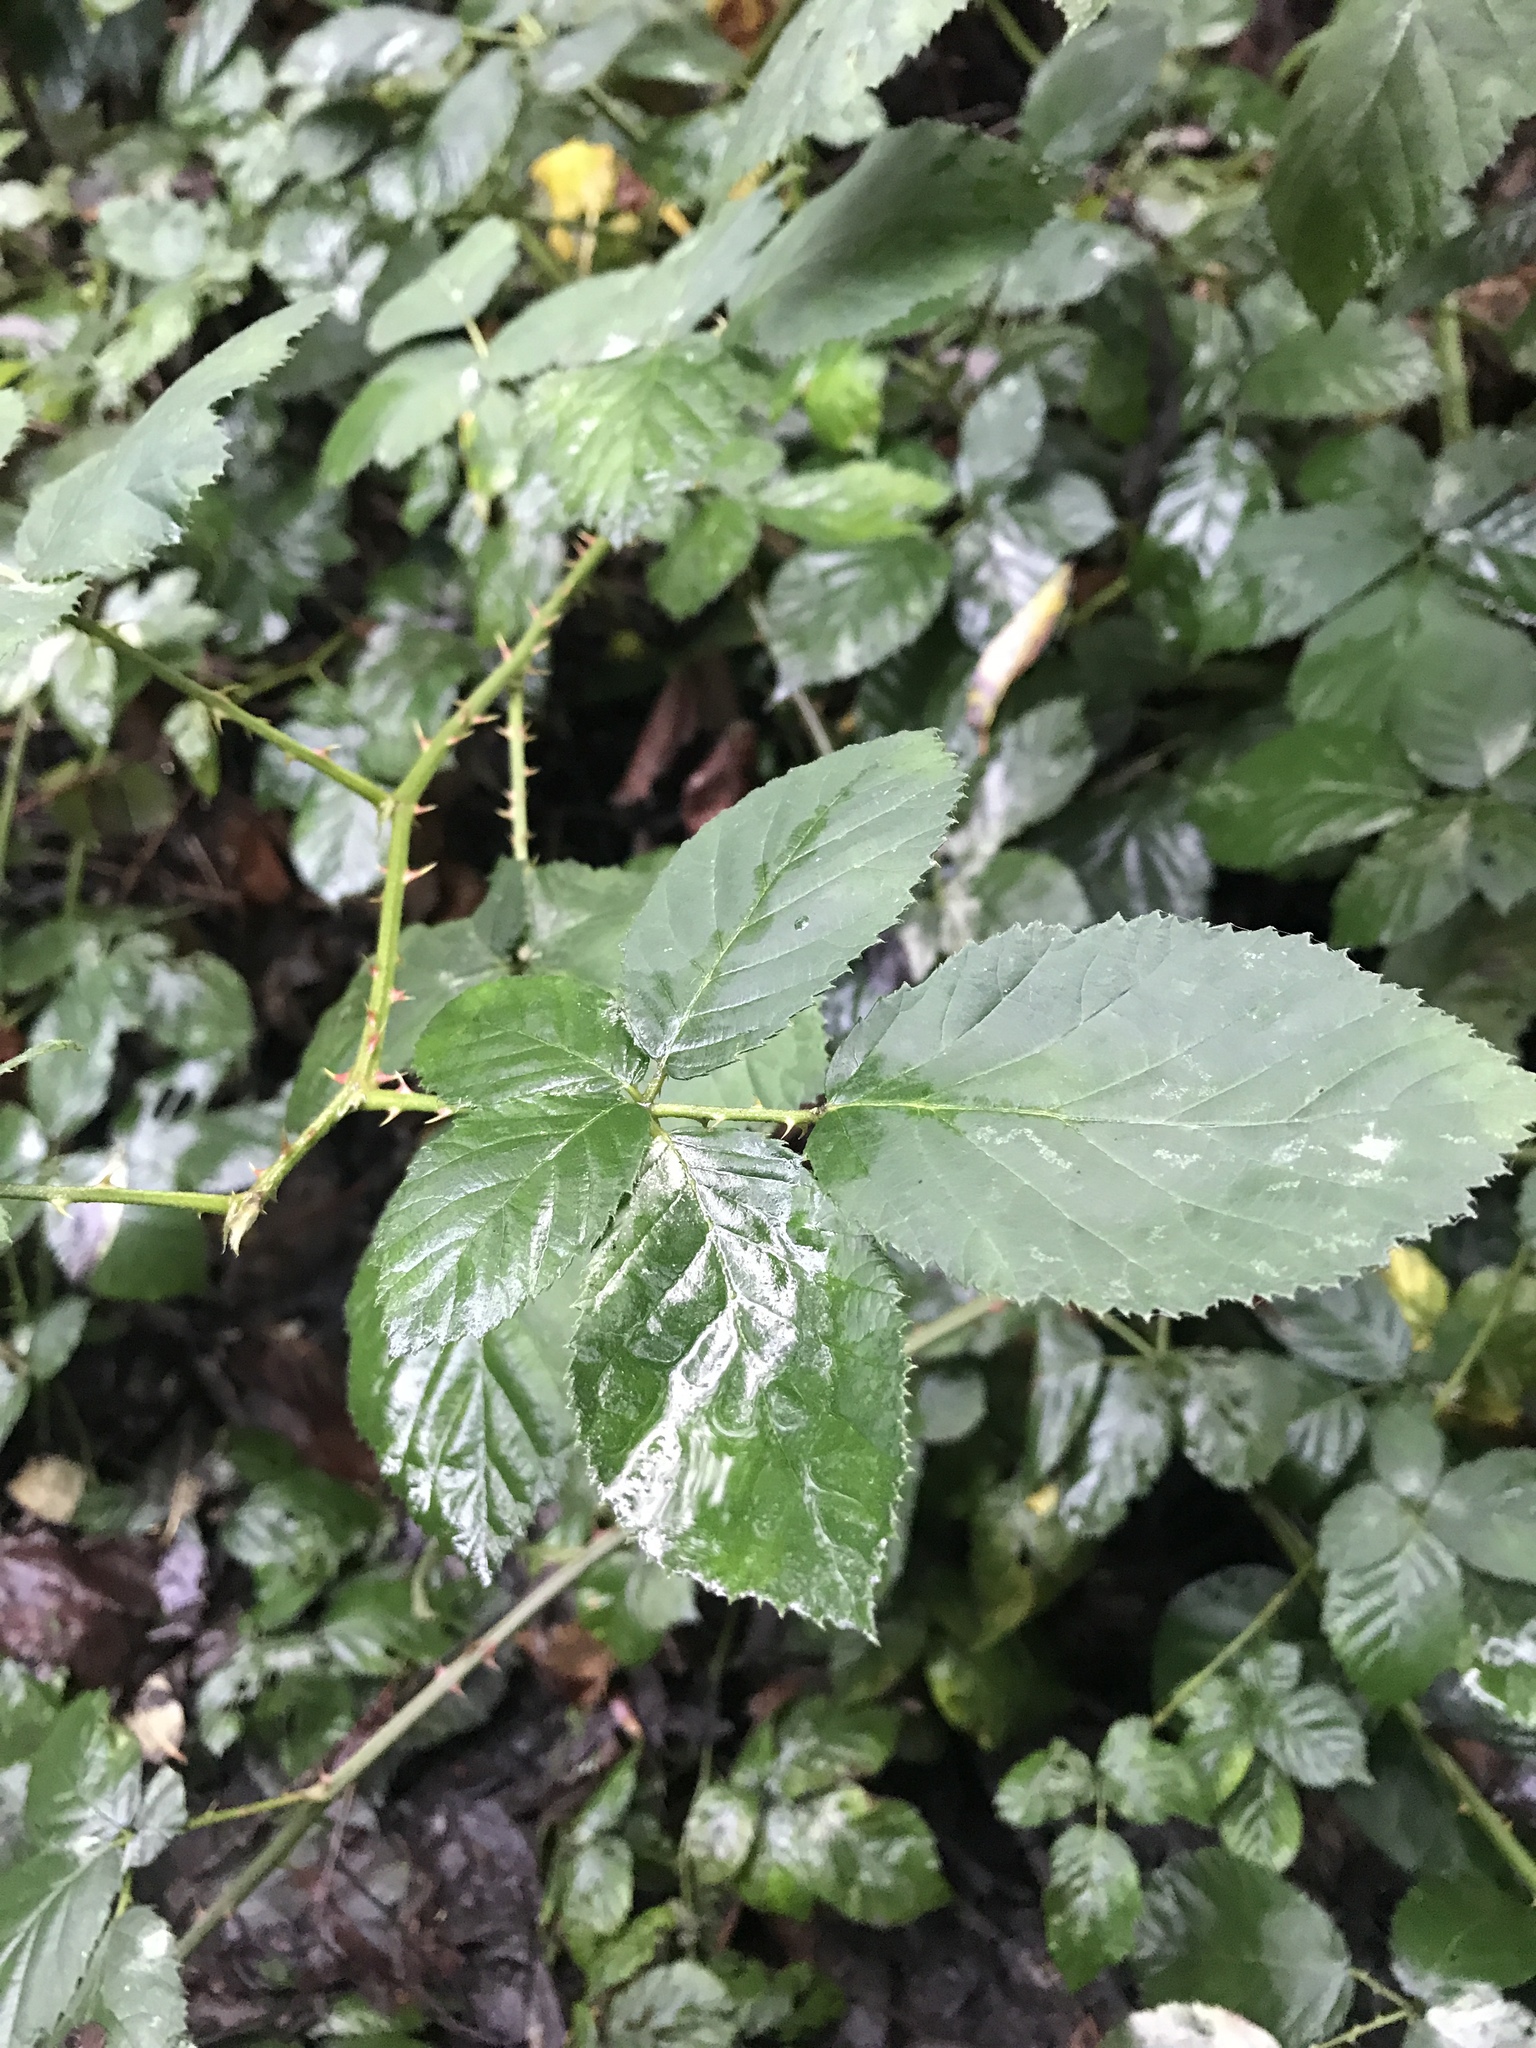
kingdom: Plantae
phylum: Tracheophyta
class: Magnoliopsida
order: Rosales
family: Rosaceae
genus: Rubus
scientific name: Rubus armeniacus
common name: Himalayan blackberry
